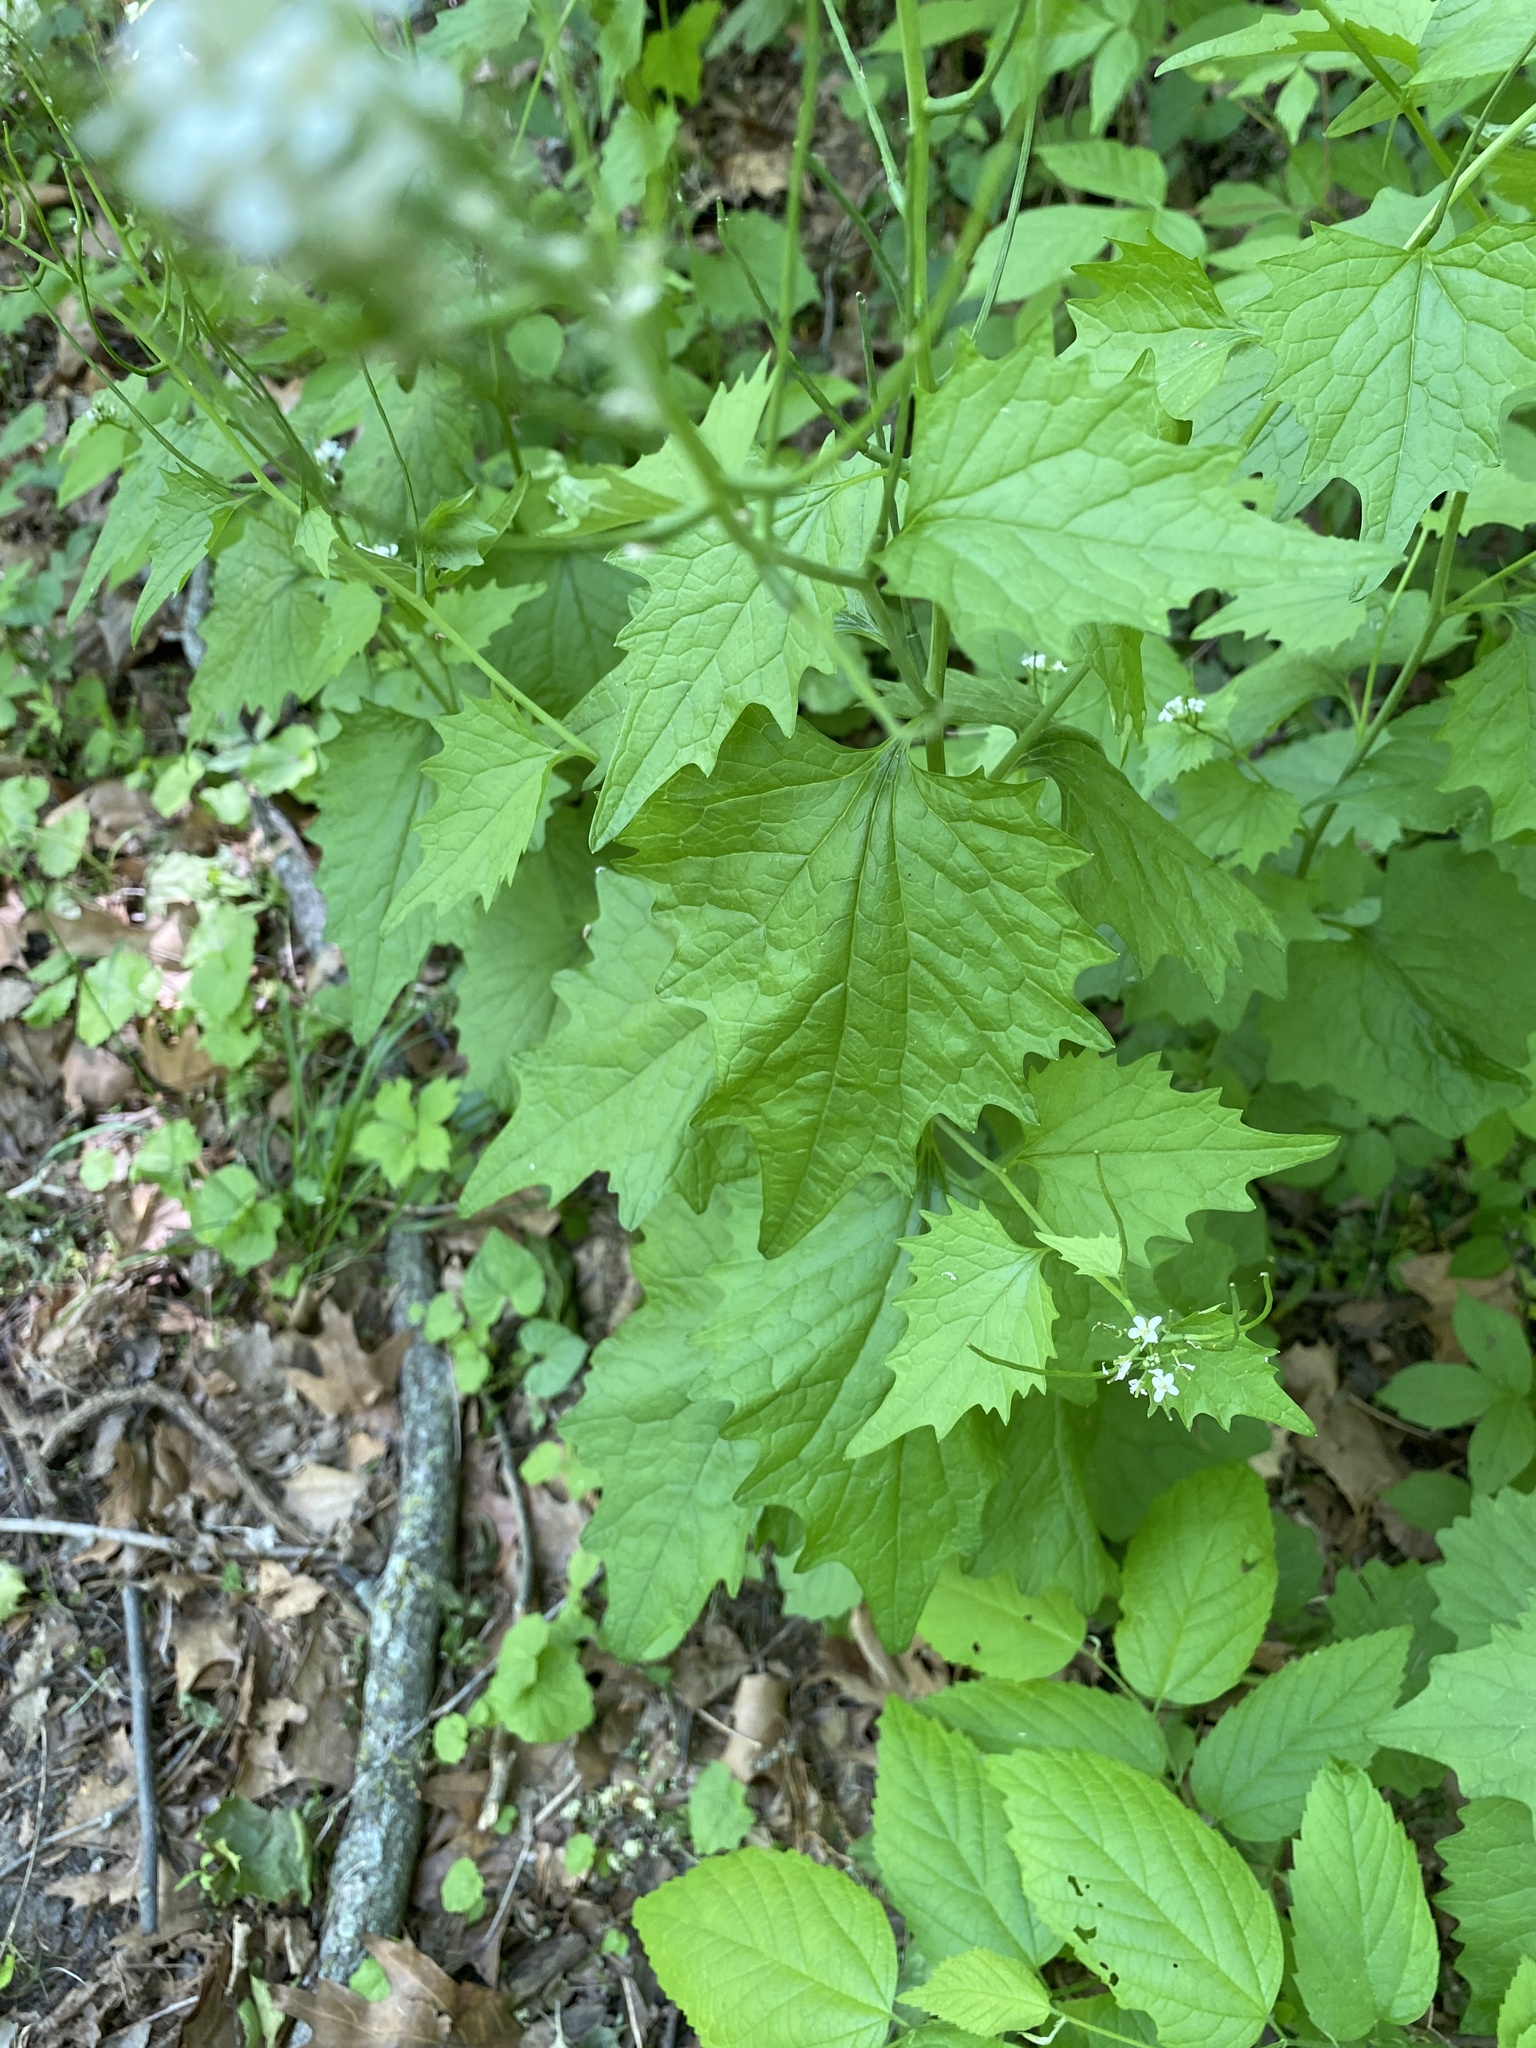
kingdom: Plantae
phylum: Tracheophyta
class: Magnoliopsida
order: Brassicales
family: Brassicaceae
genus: Alliaria
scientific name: Alliaria petiolata
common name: Garlic mustard
